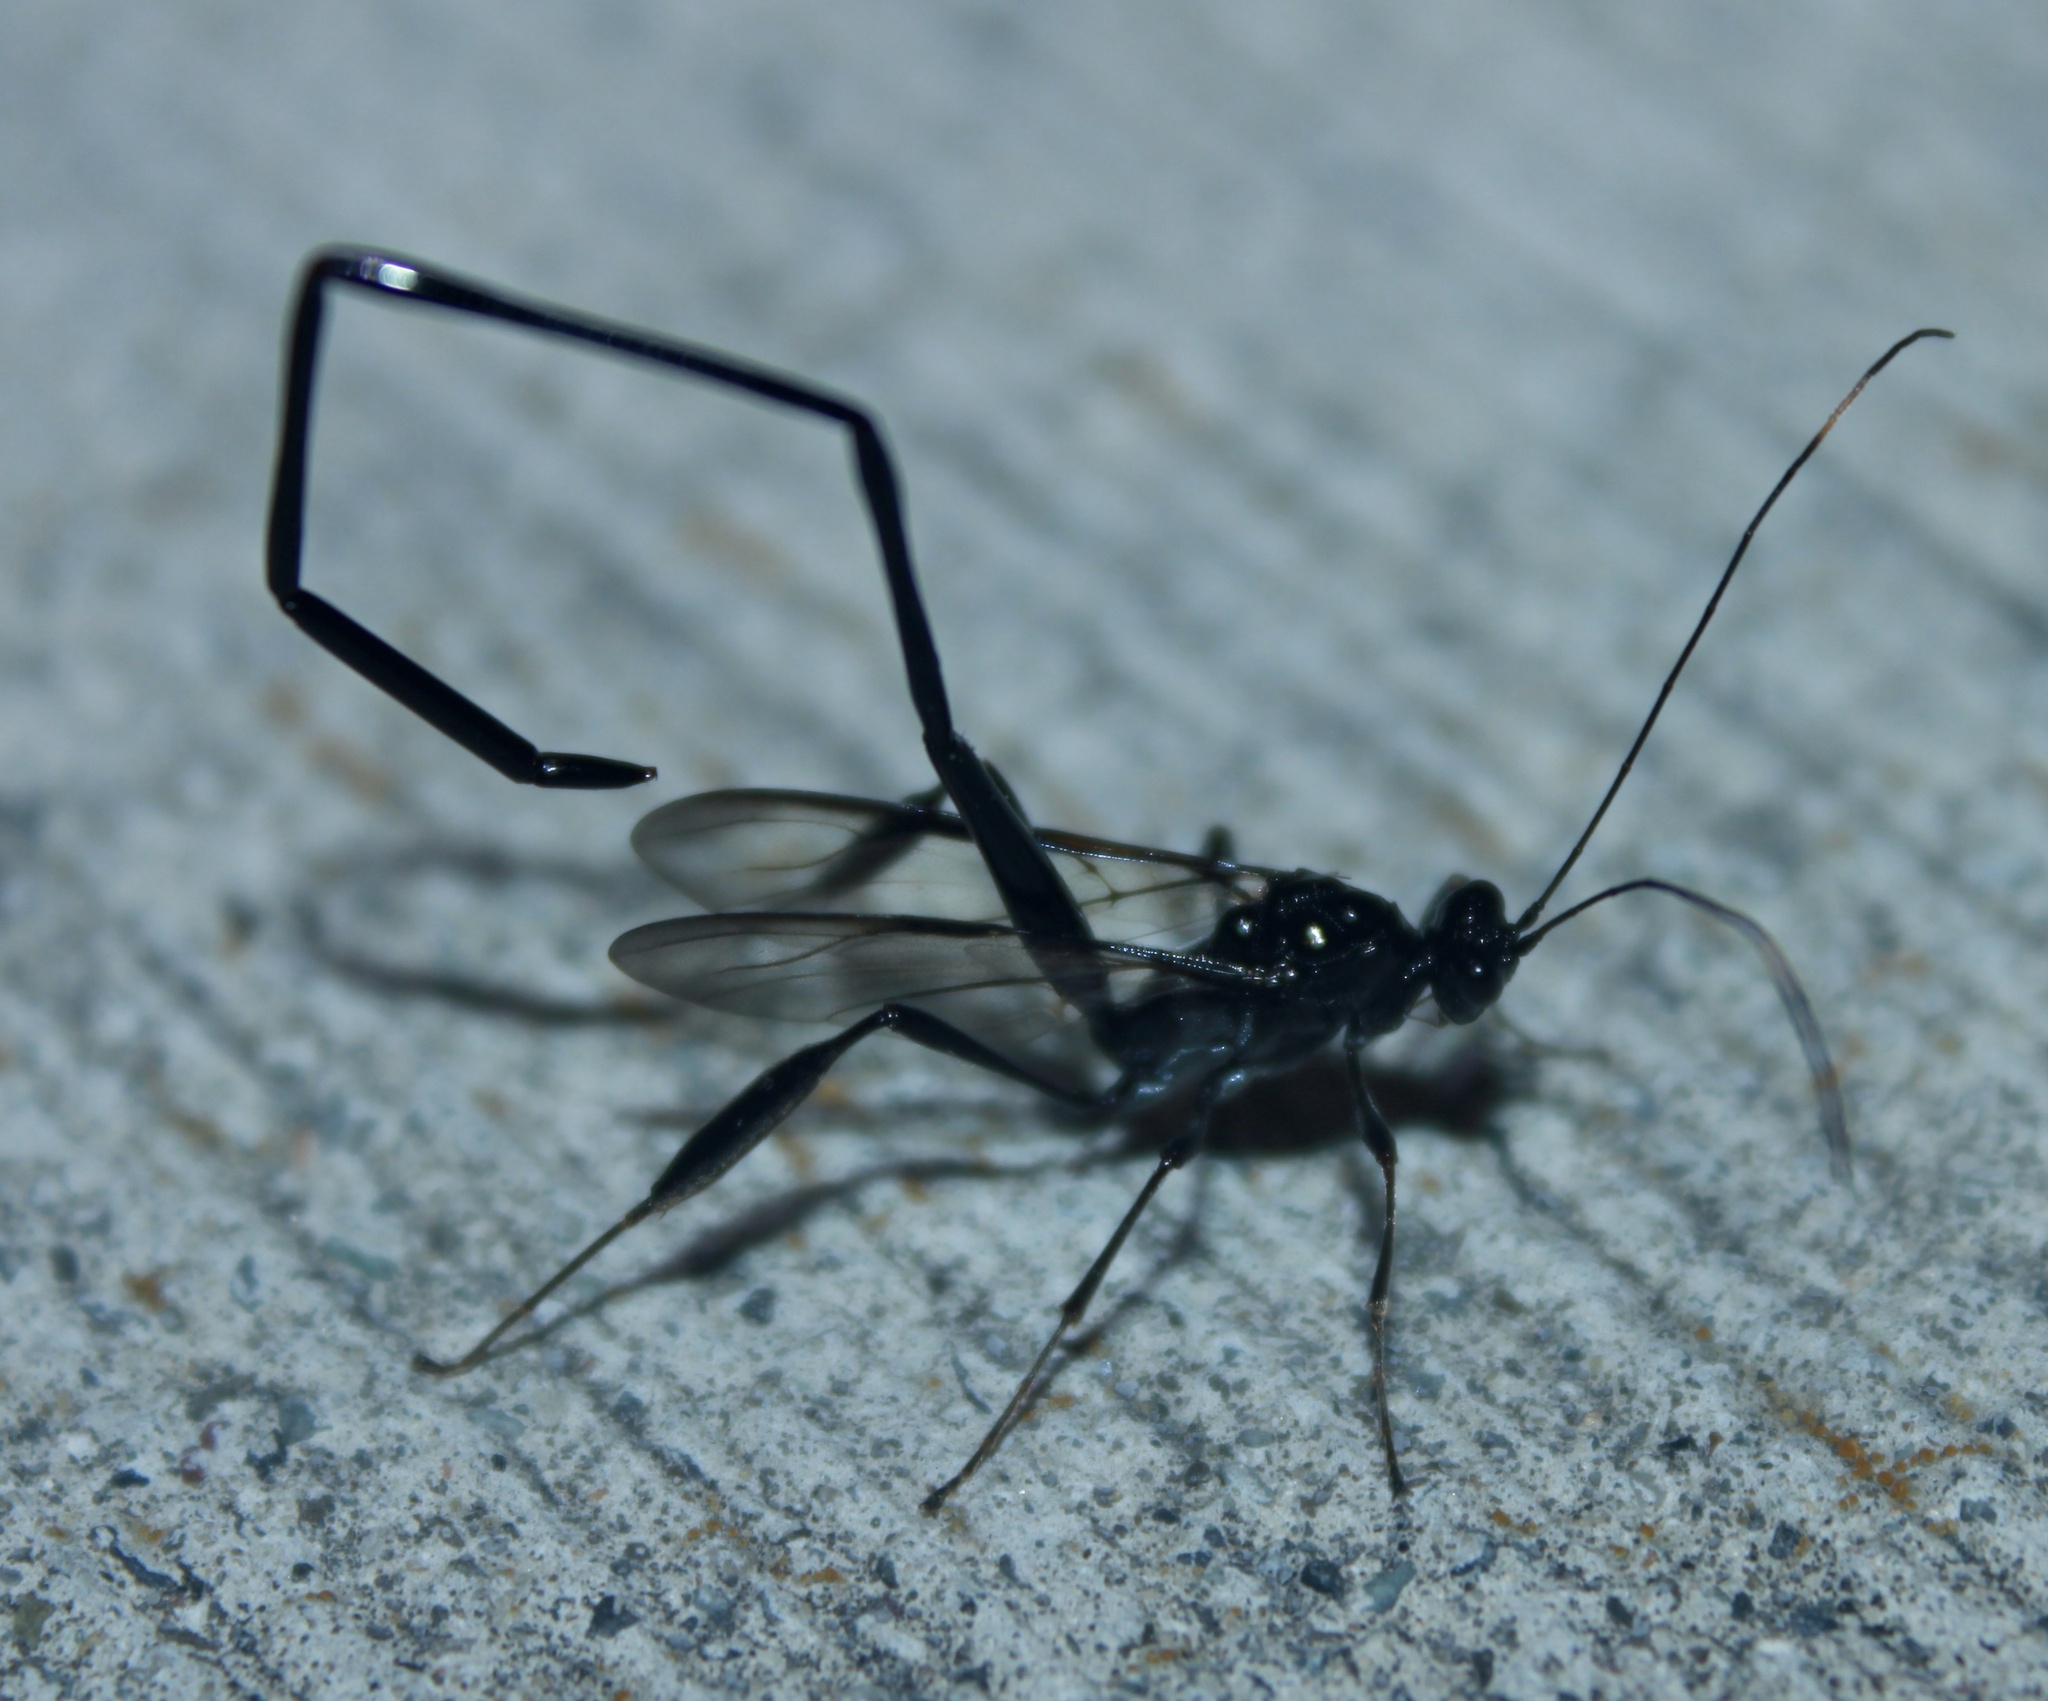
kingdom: Animalia
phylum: Arthropoda
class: Insecta
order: Hymenoptera
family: Pelecinidae
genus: Pelecinus
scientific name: Pelecinus polyturator
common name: American pelecinid wasp
